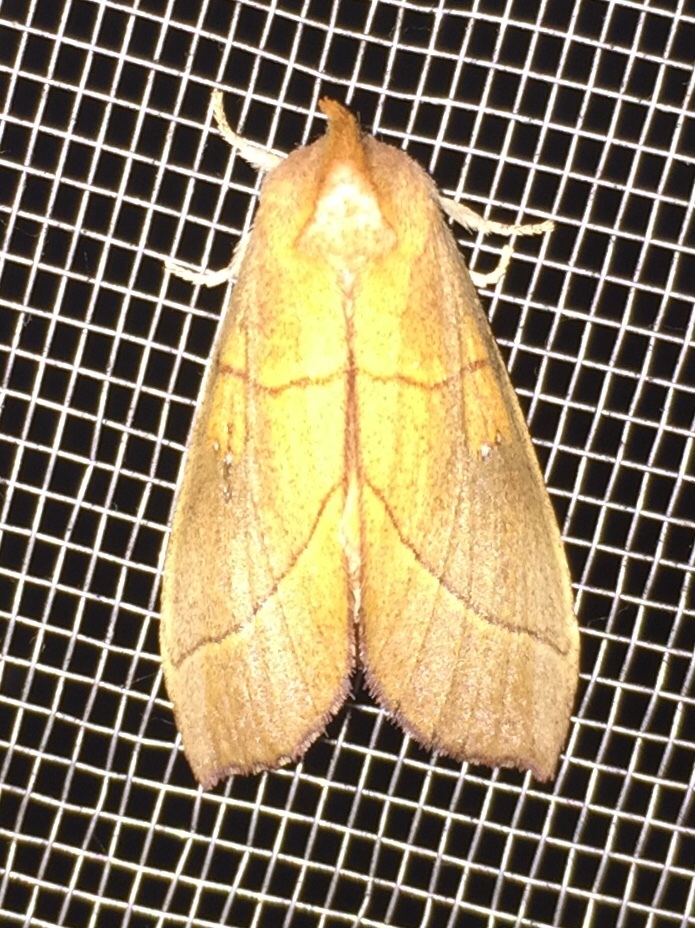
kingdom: Animalia
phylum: Arthropoda
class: Insecta
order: Lepidoptera
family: Notodontidae
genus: Nadata
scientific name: Nadata gibbosa
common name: White-dotted prominent
